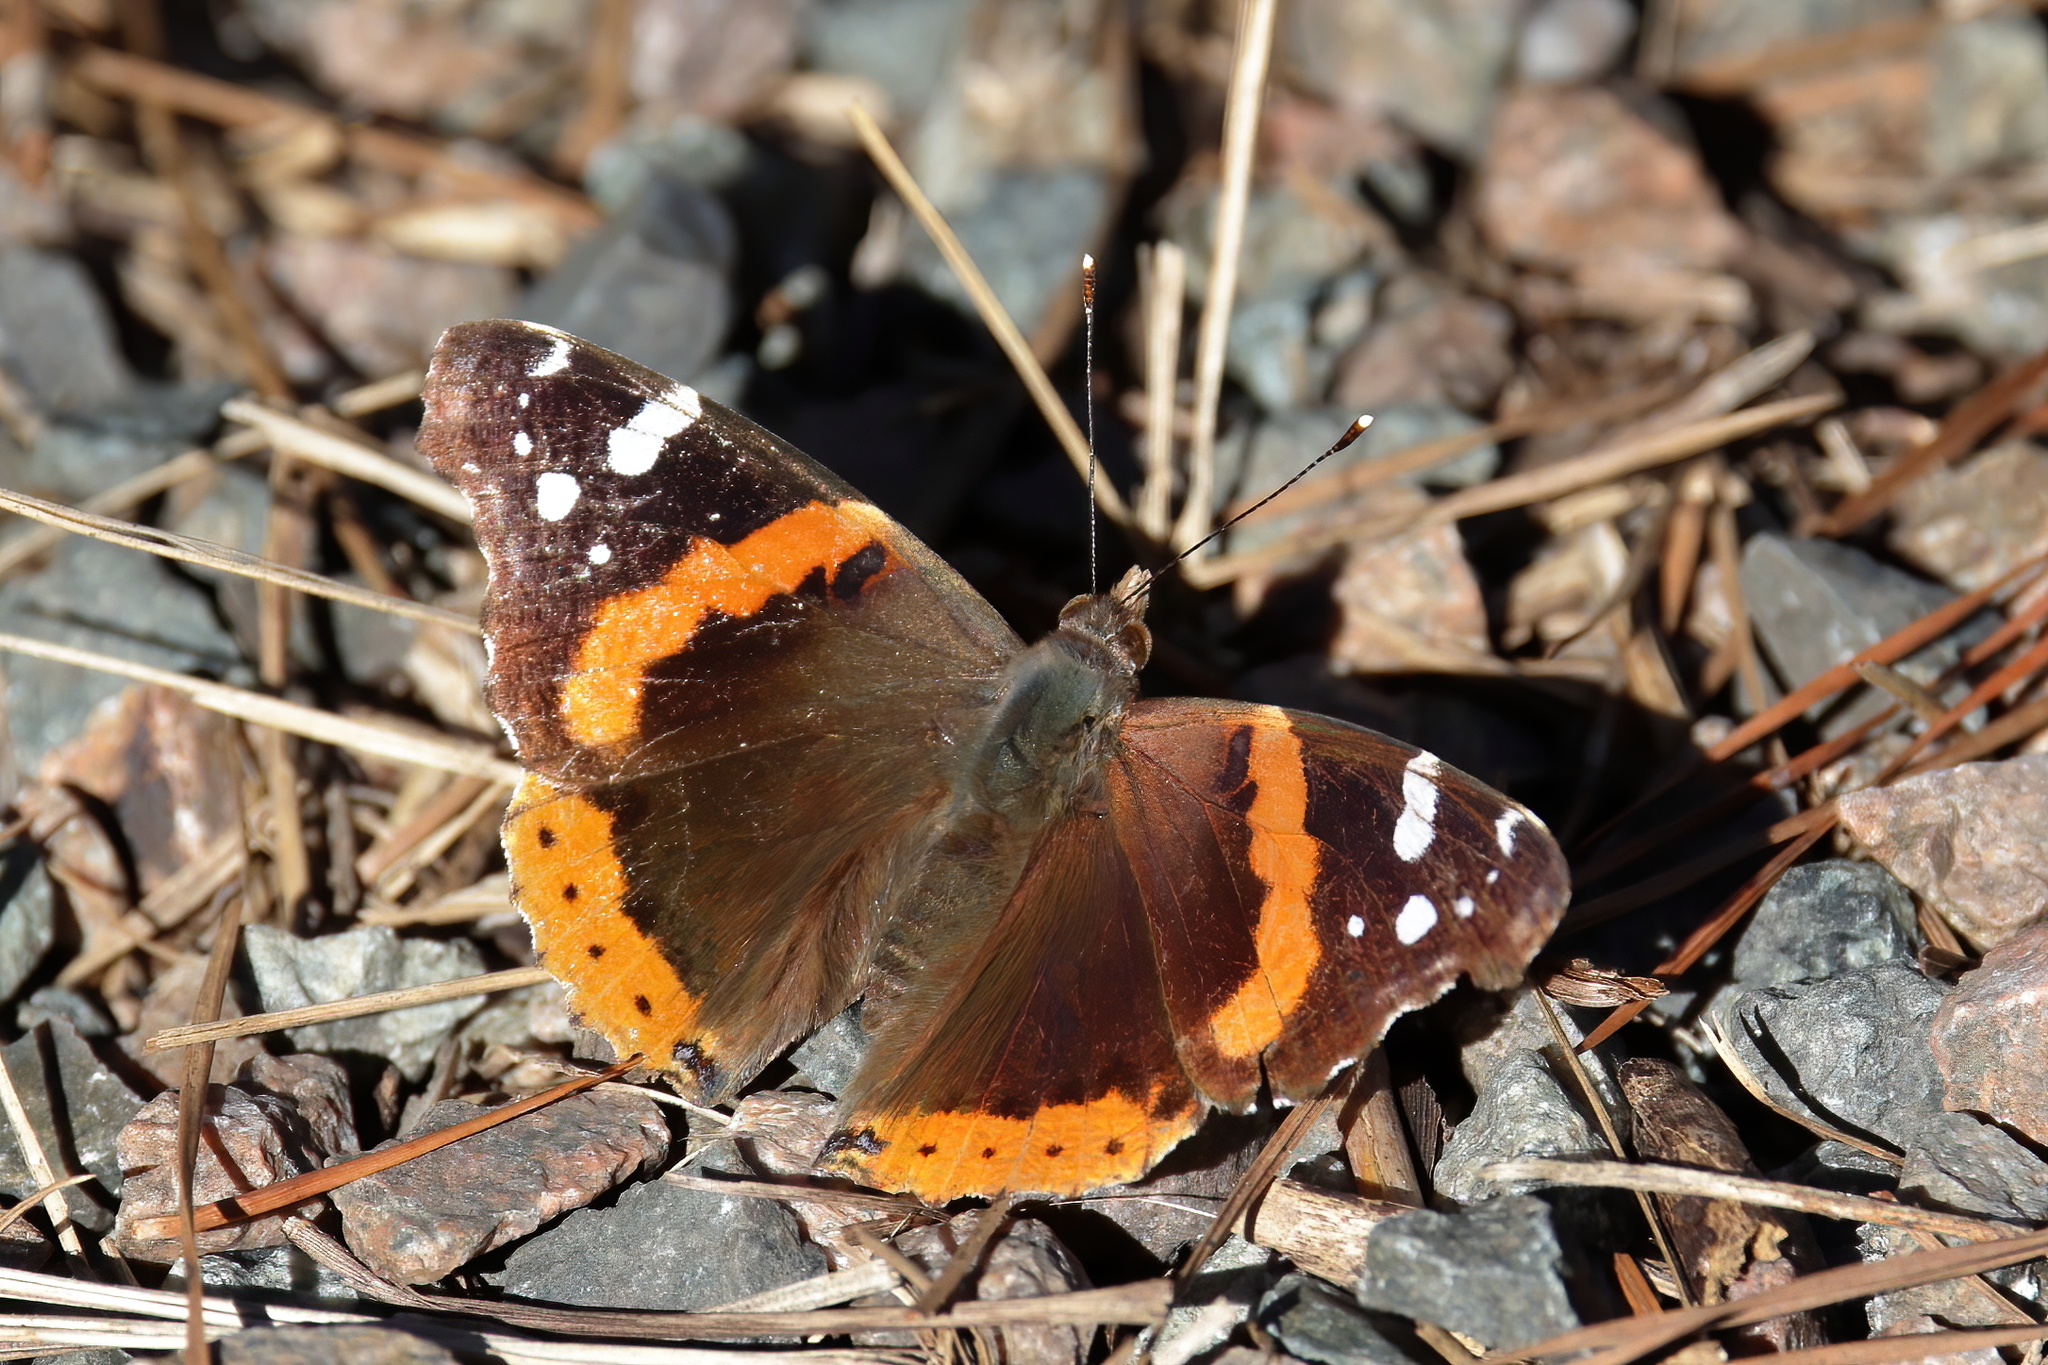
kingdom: Animalia
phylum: Arthropoda
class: Insecta
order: Lepidoptera
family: Nymphalidae
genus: Vanessa
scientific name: Vanessa atalanta
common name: Red admiral
